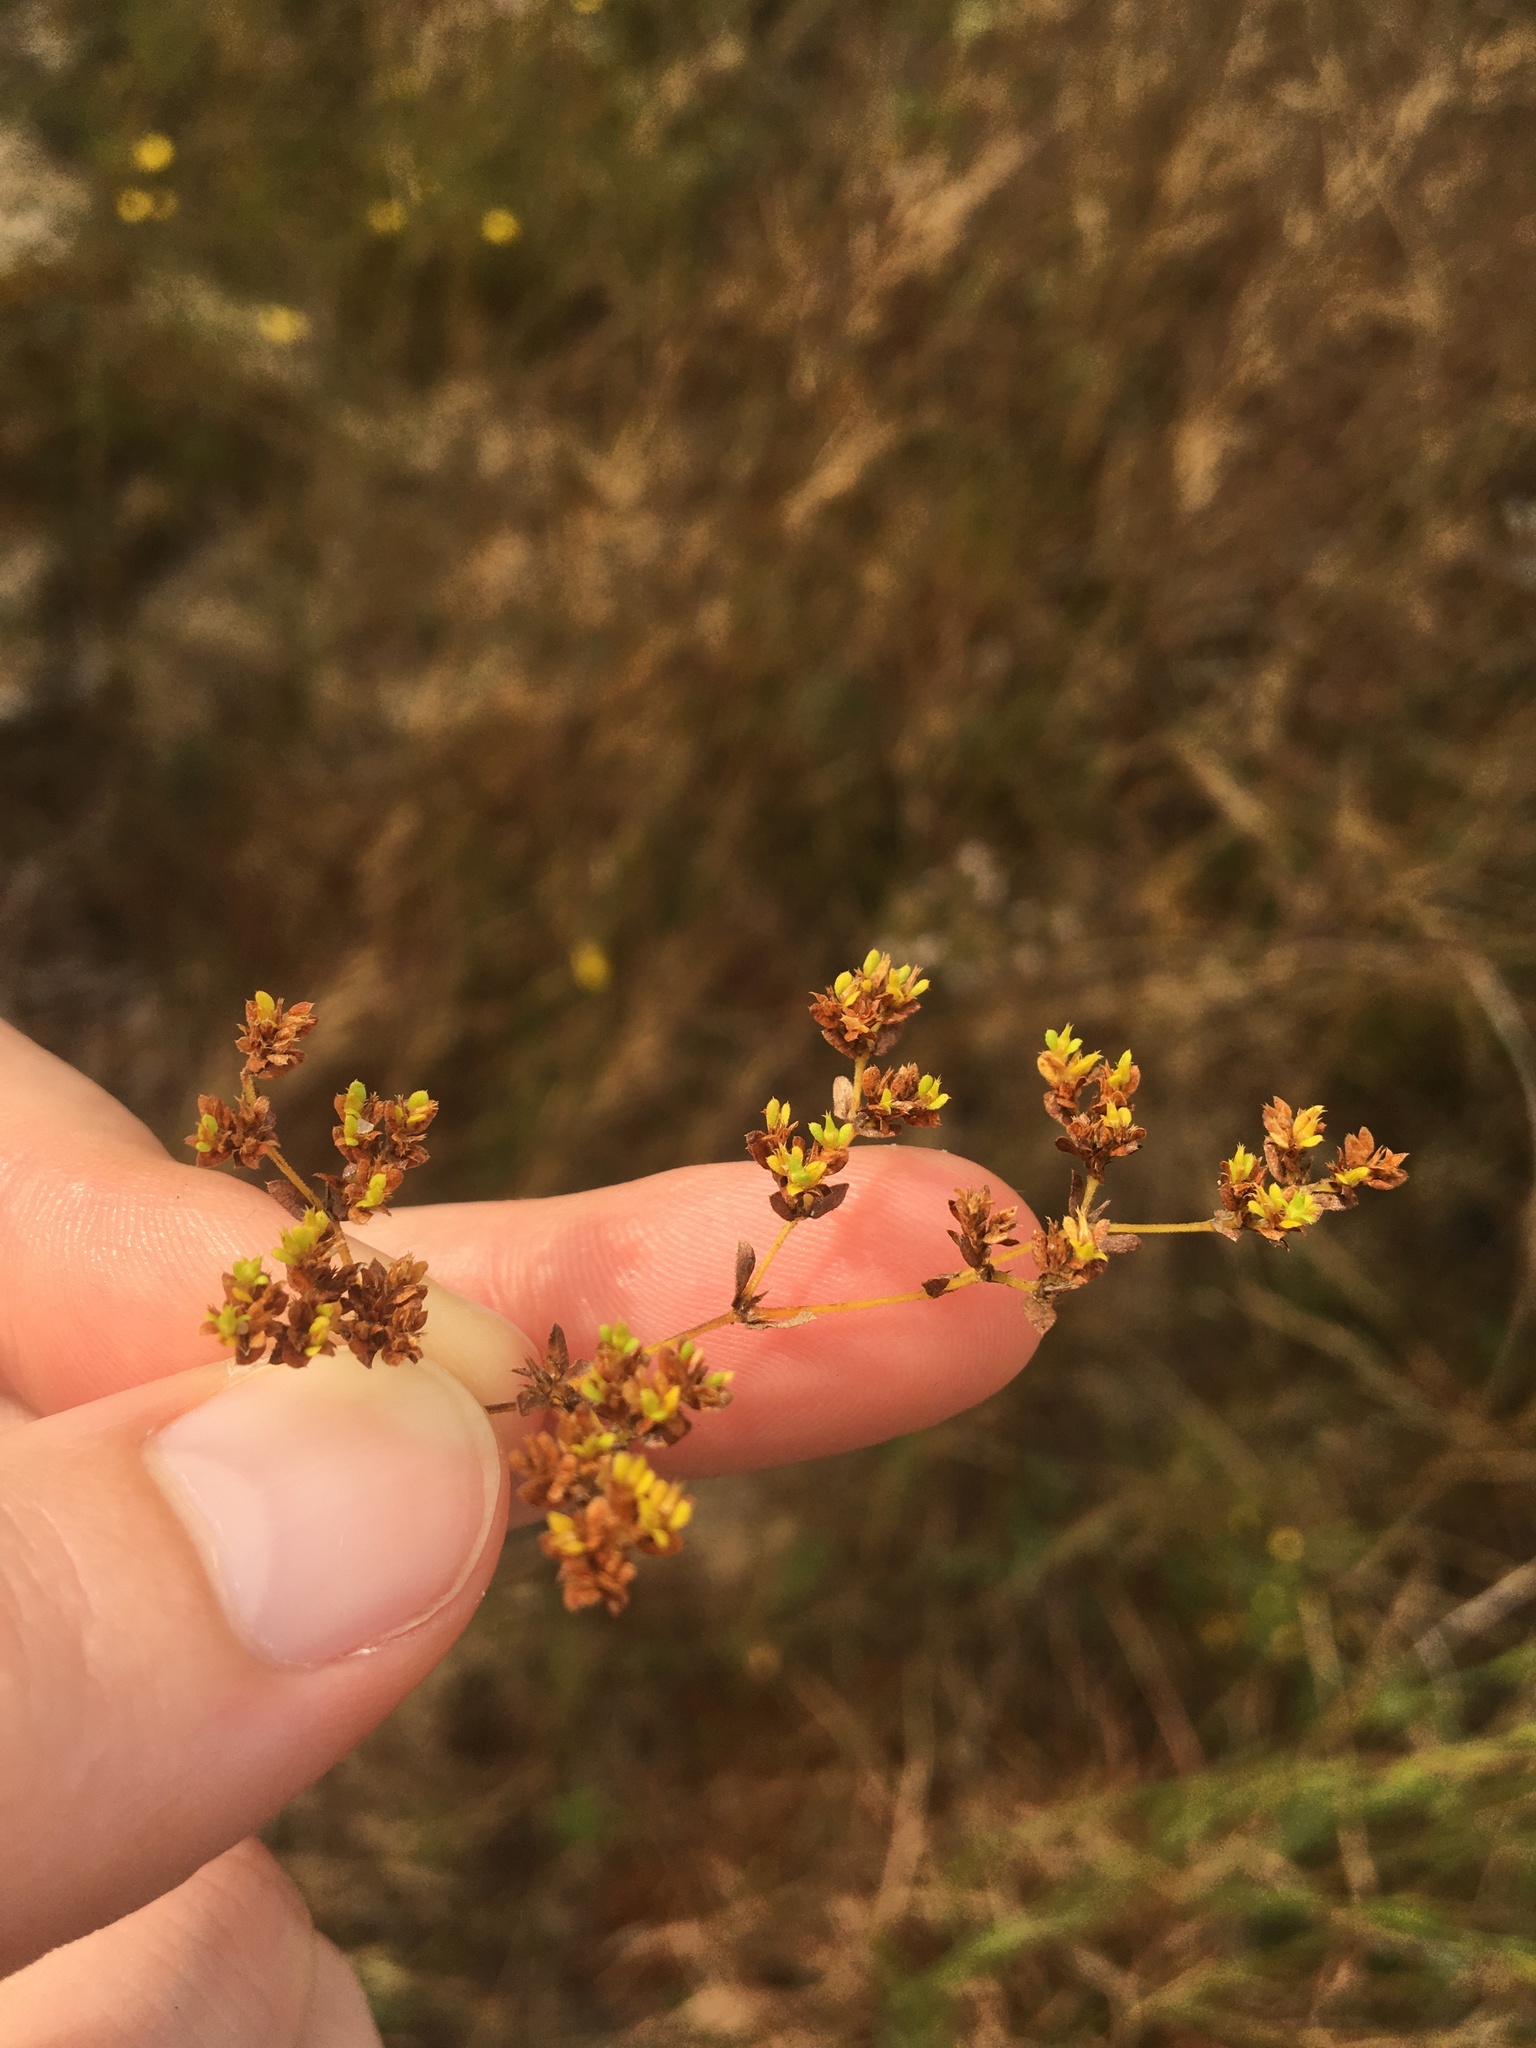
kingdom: Plantae
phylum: Tracheophyta
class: Magnoliopsida
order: Caryophyllales
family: Caryophyllaceae
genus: Paronychia
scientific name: Paronychia herniarioides
